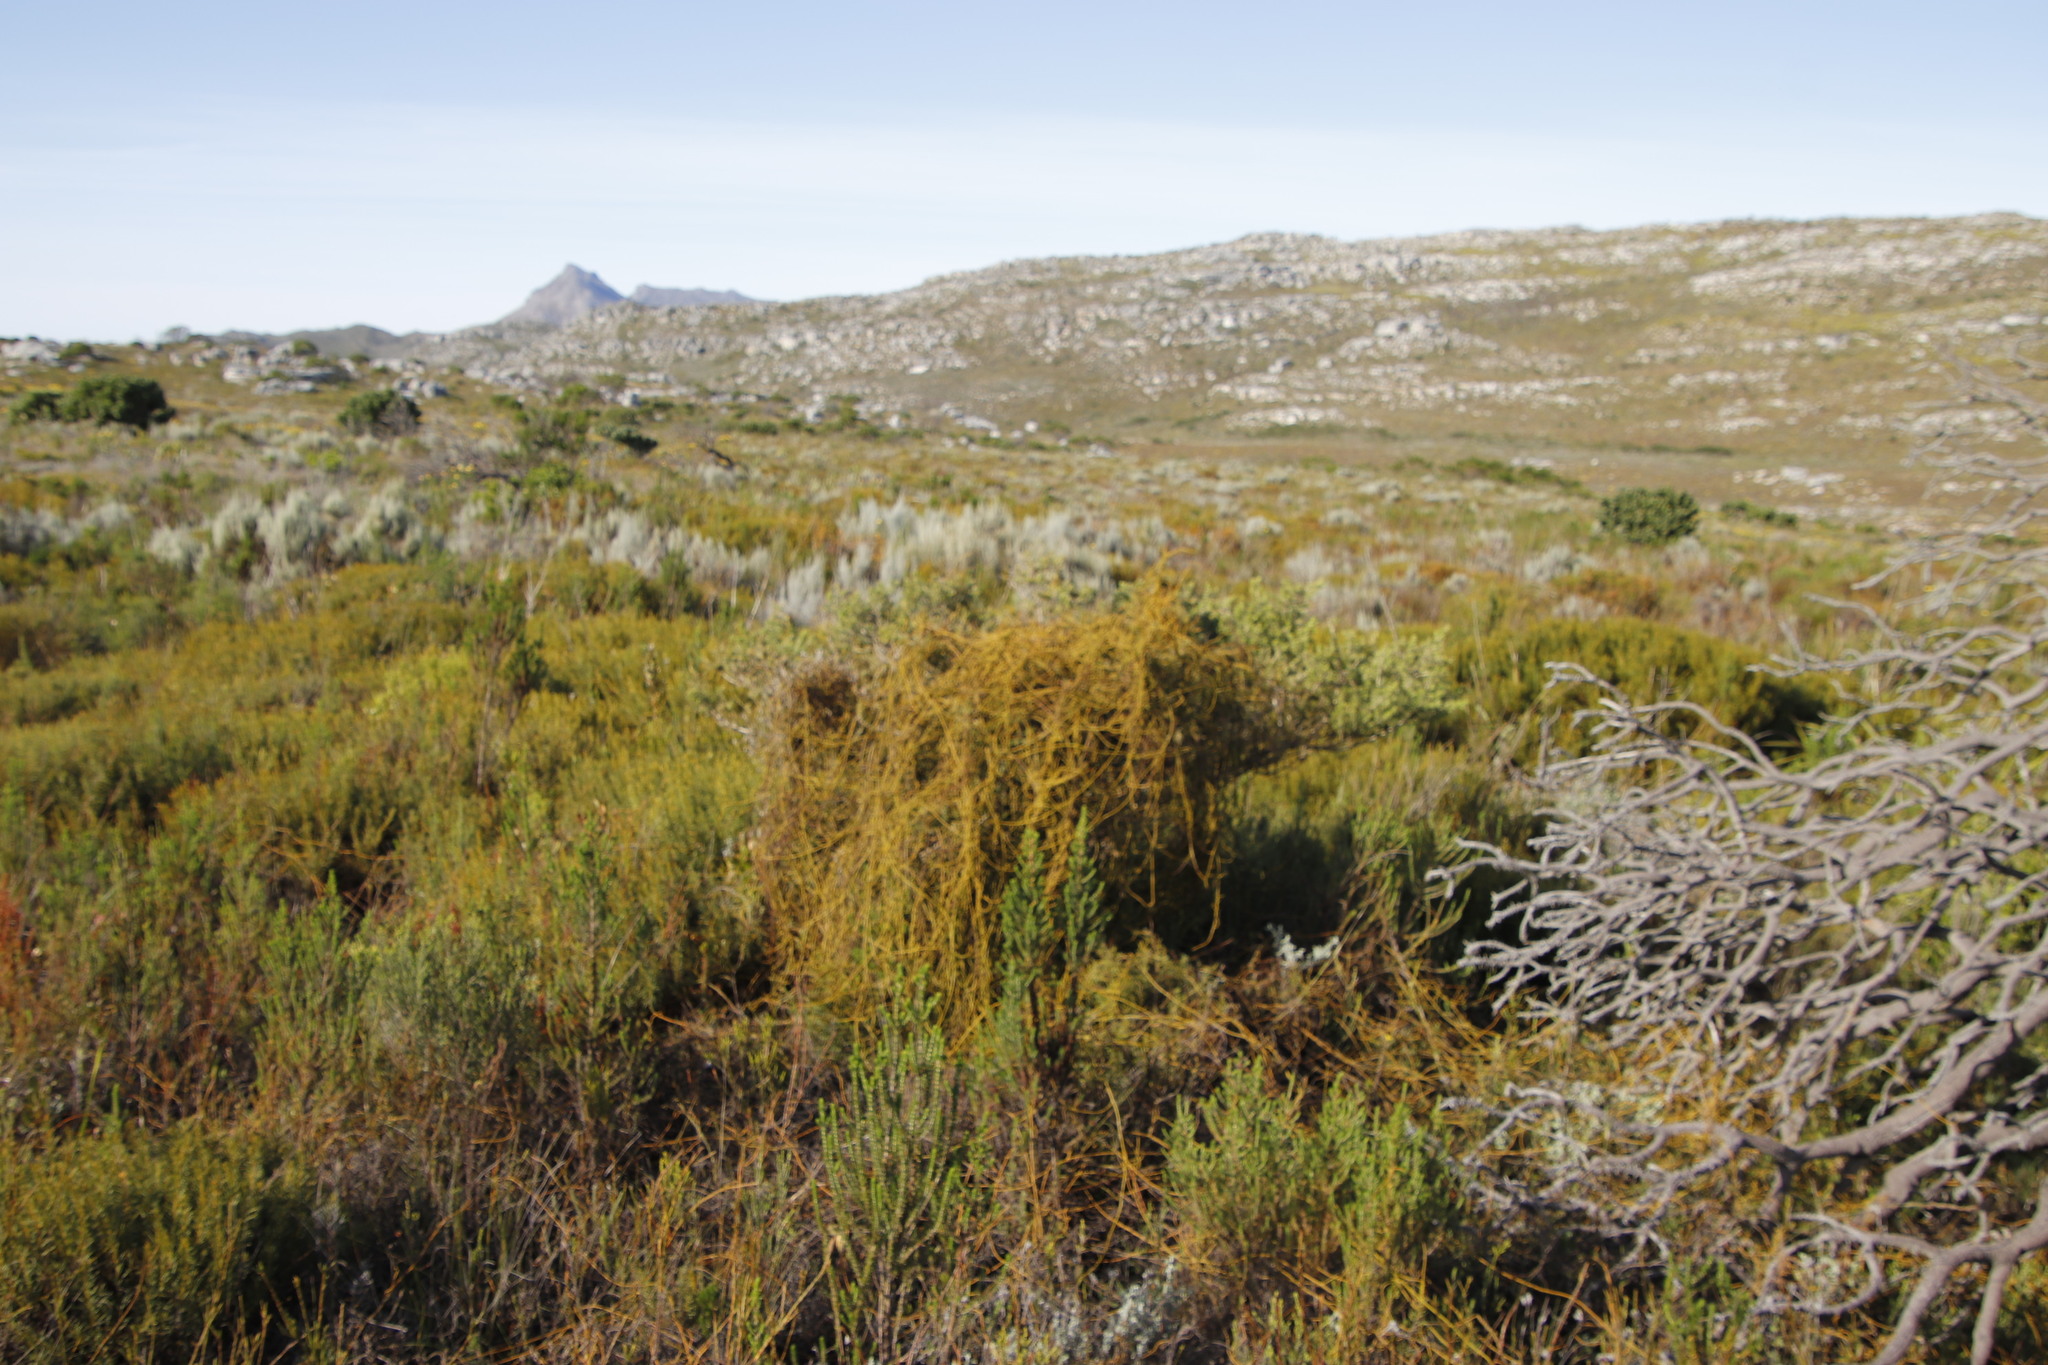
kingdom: Plantae
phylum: Tracheophyta
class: Magnoliopsida
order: Laurales
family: Lauraceae
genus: Cassytha
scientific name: Cassytha ciliolata
